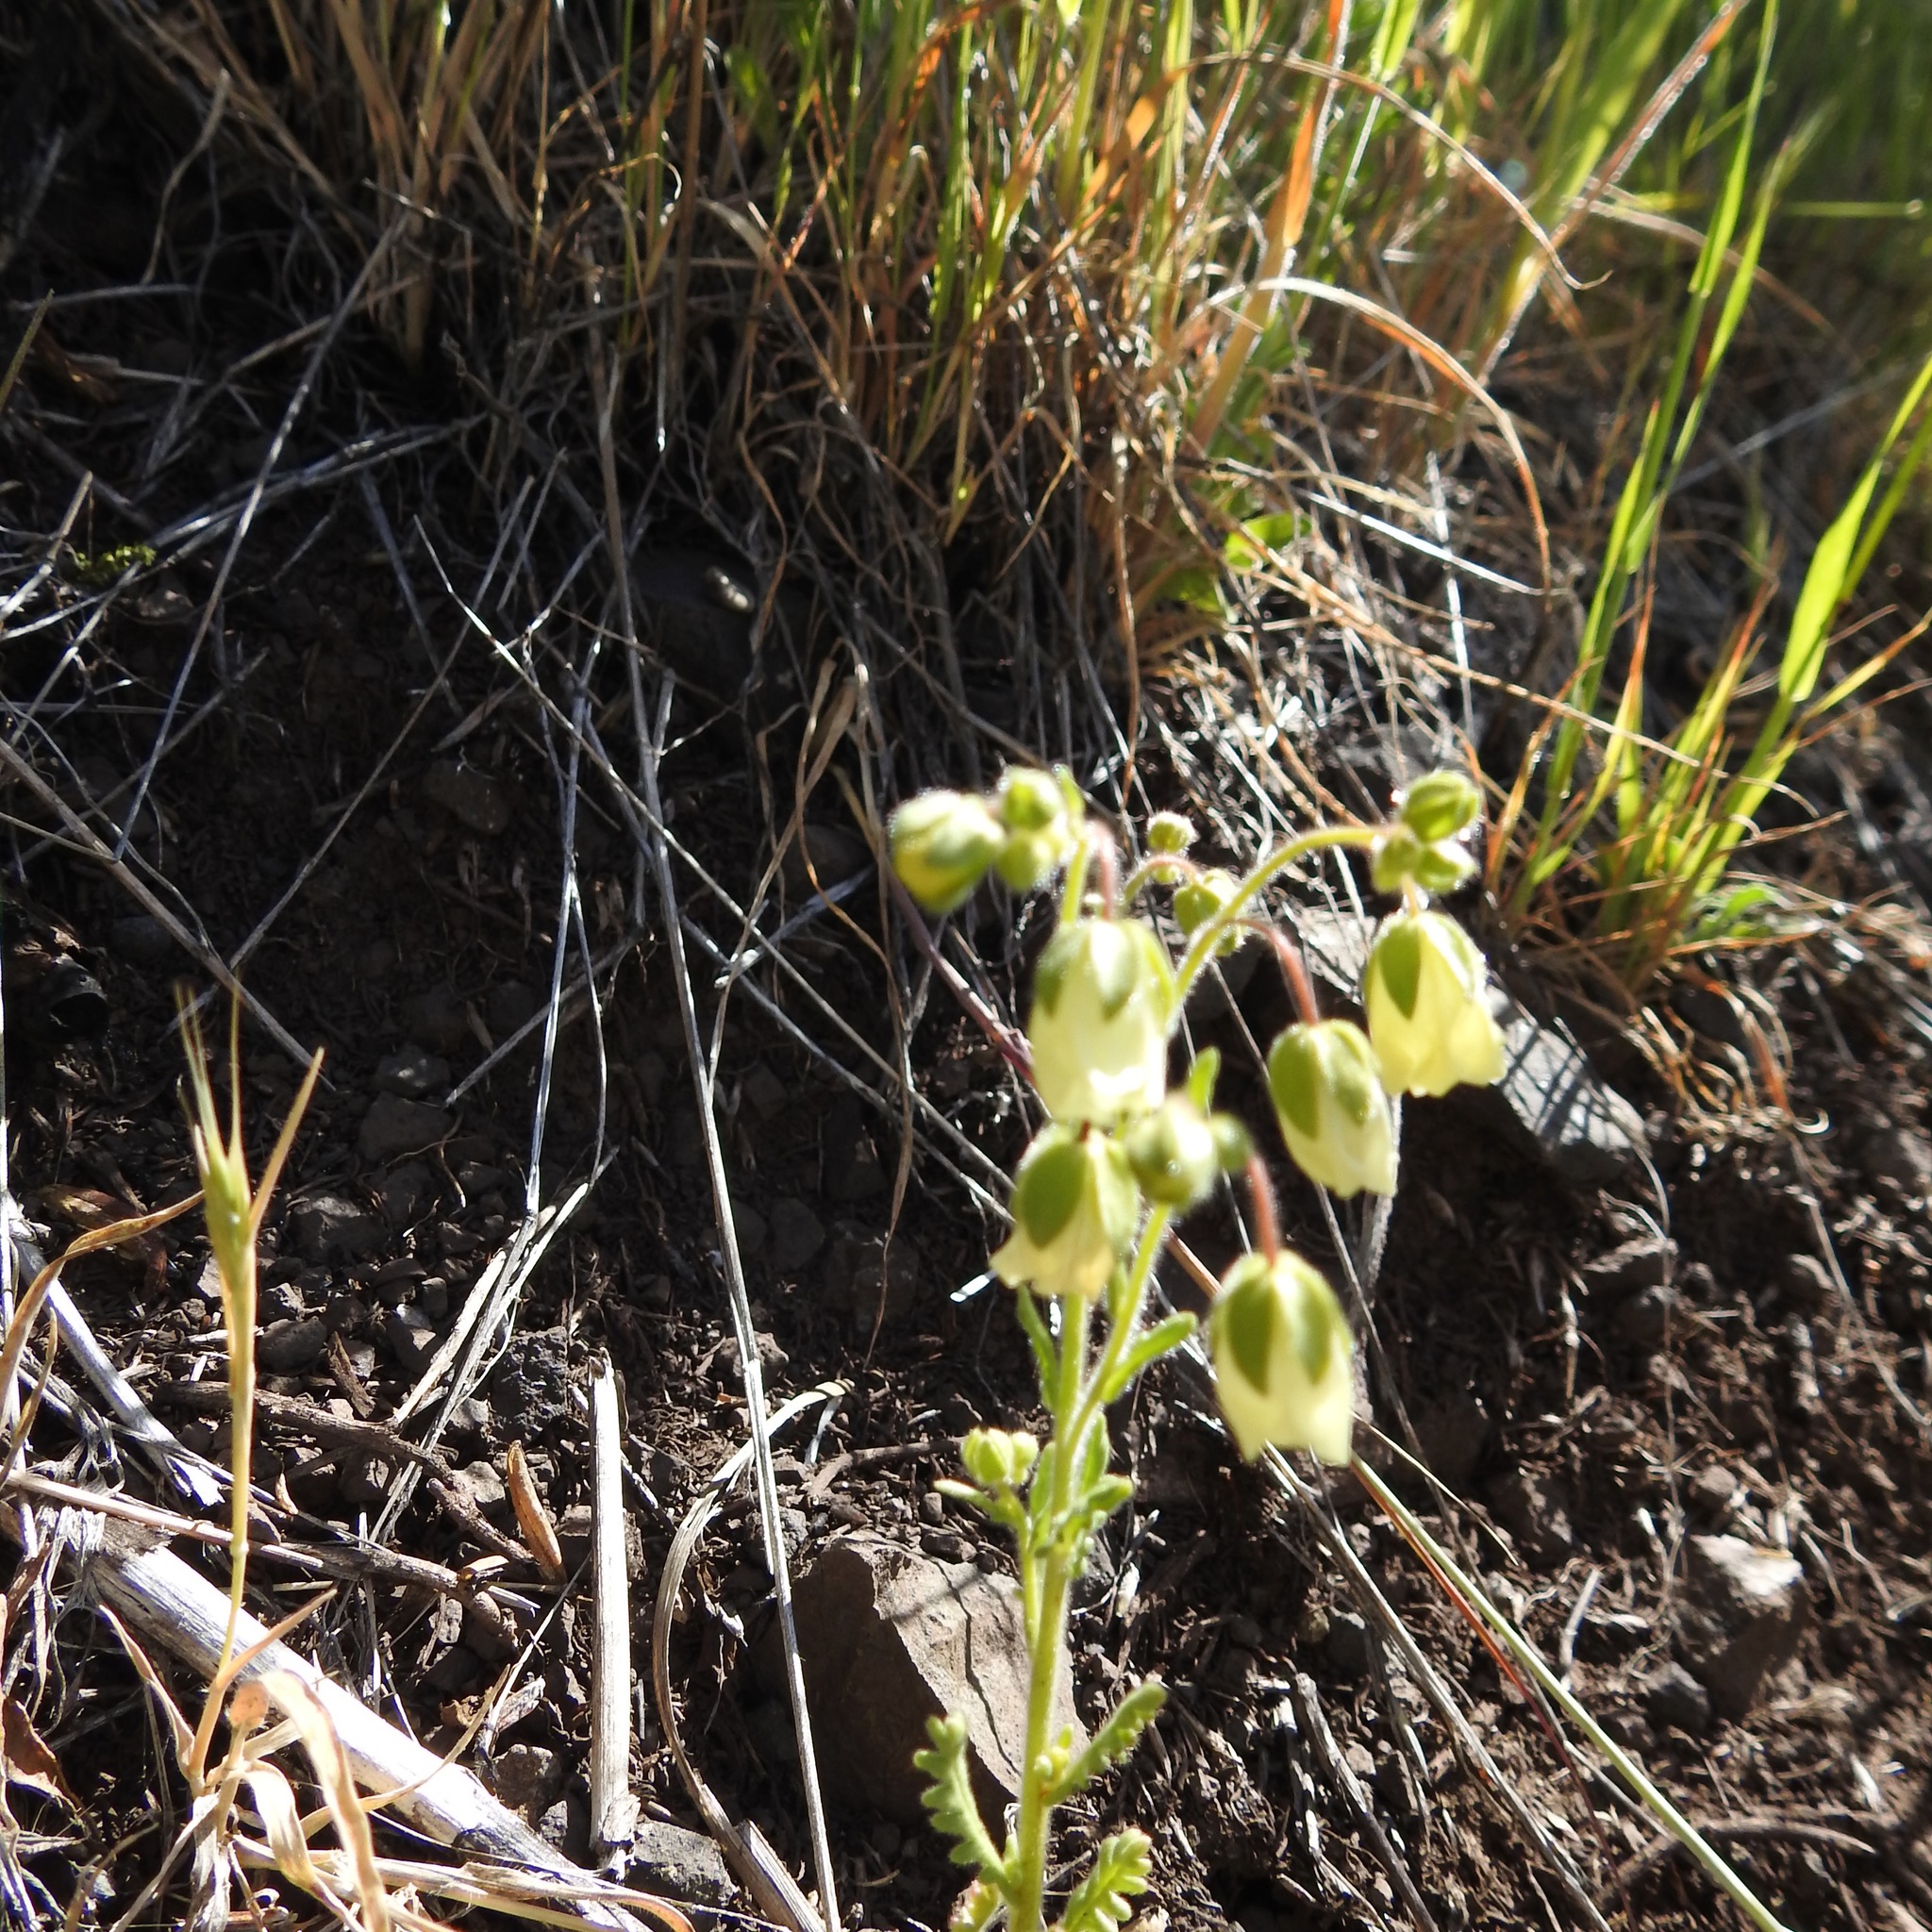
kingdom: Plantae
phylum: Tracheophyta
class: Magnoliopsida
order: Boraginales
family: Hydrophyllaceae
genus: Emmenanthe
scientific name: Emmenanthe penduliflora
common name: Whispering-bells
